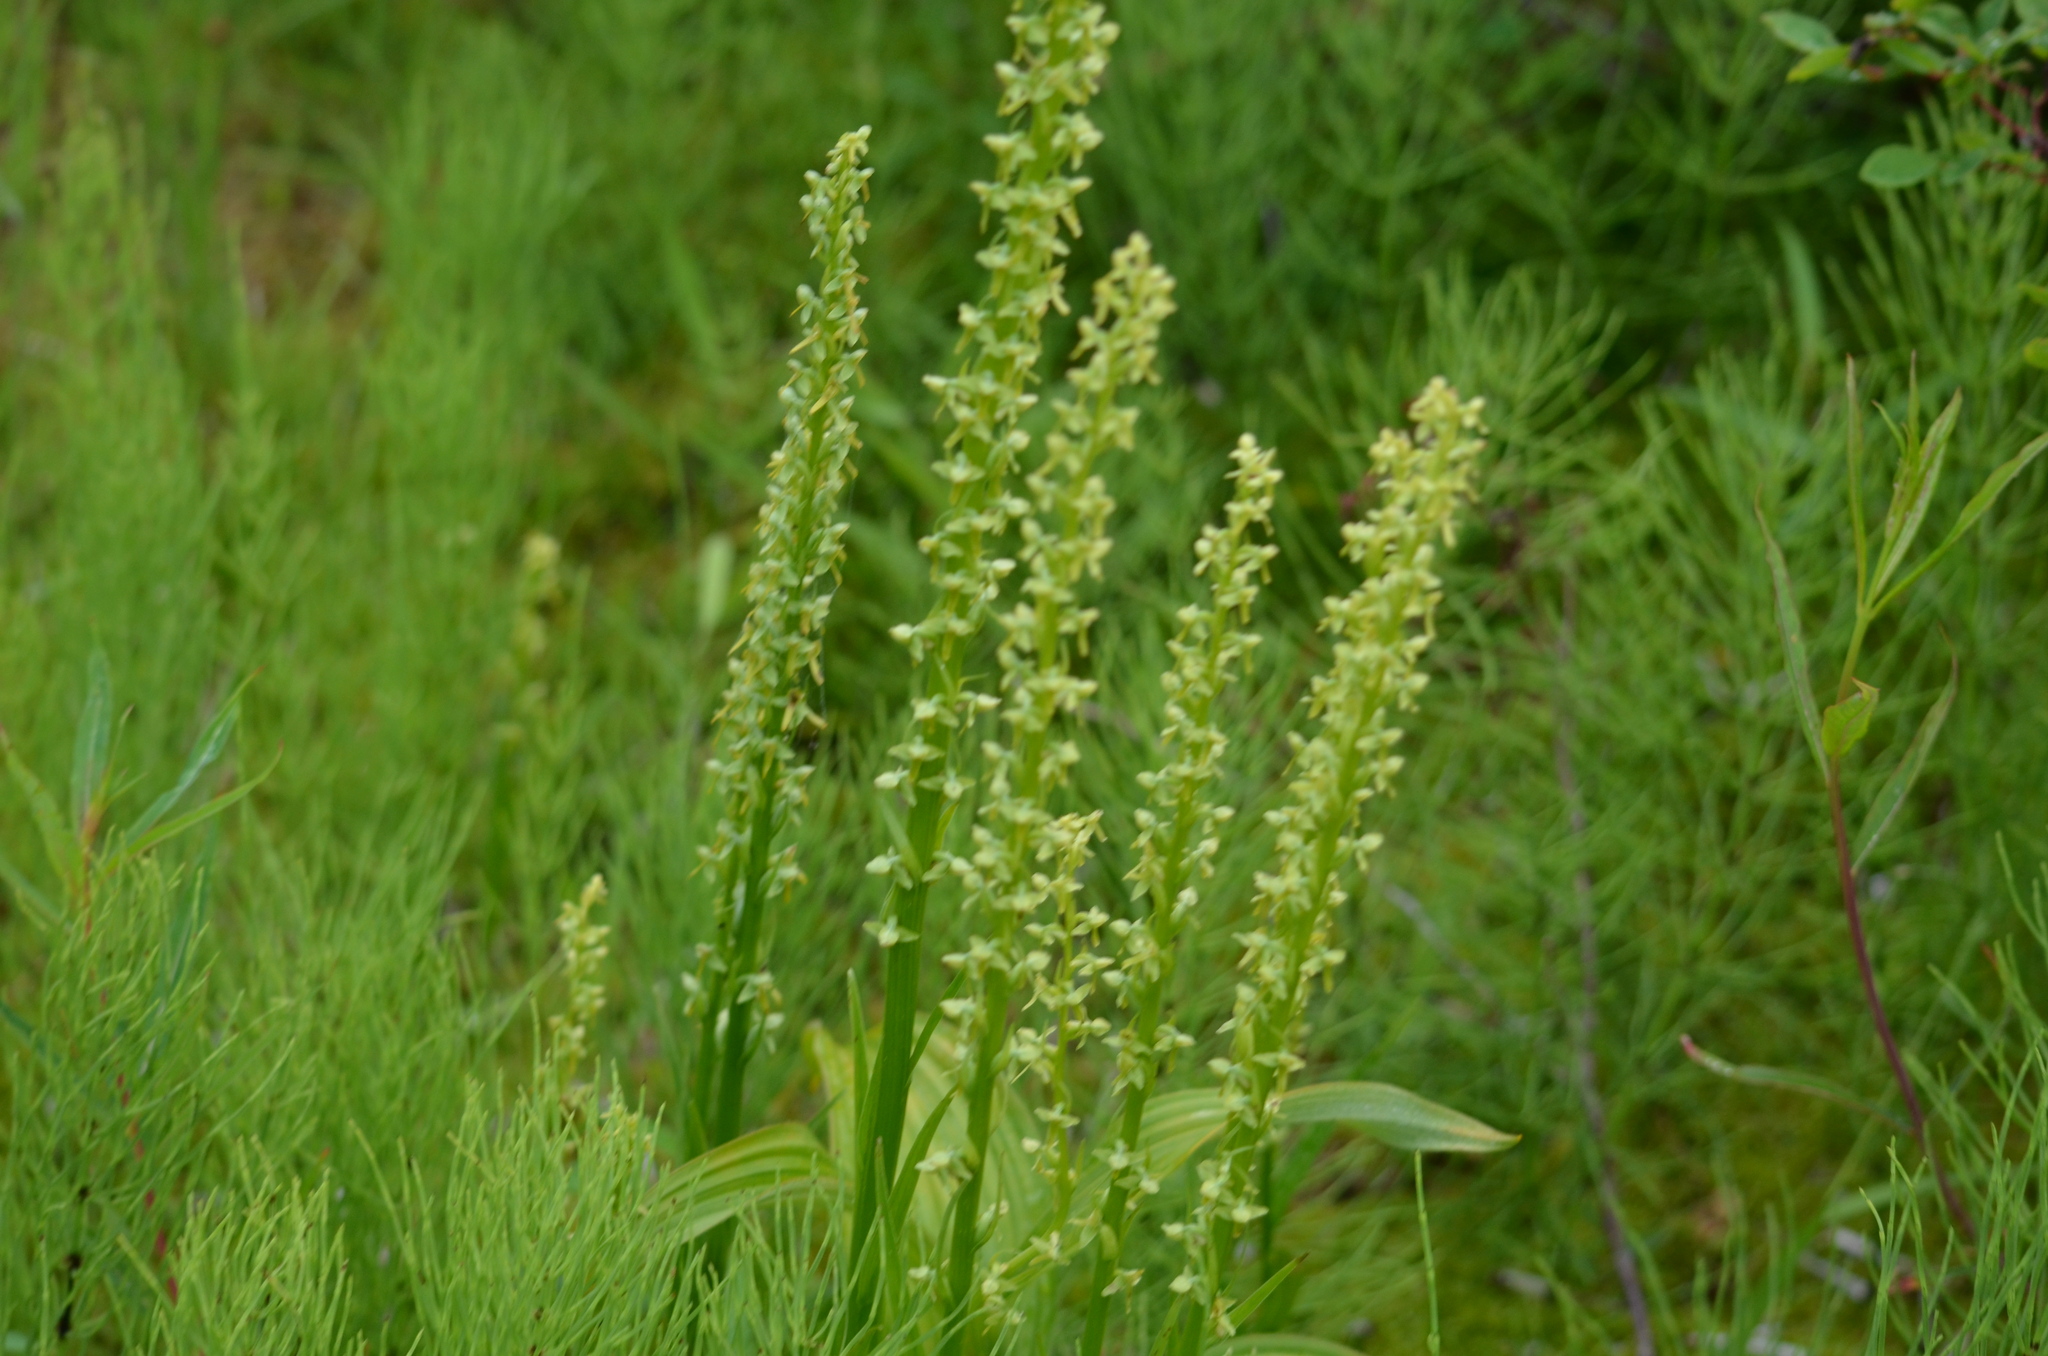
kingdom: Plantae
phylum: Tracheophyta
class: Liliopsida
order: Asparagales
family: Orchidaceae
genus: Platanthera
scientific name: Platanthera stricta
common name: Slender bog orchid
